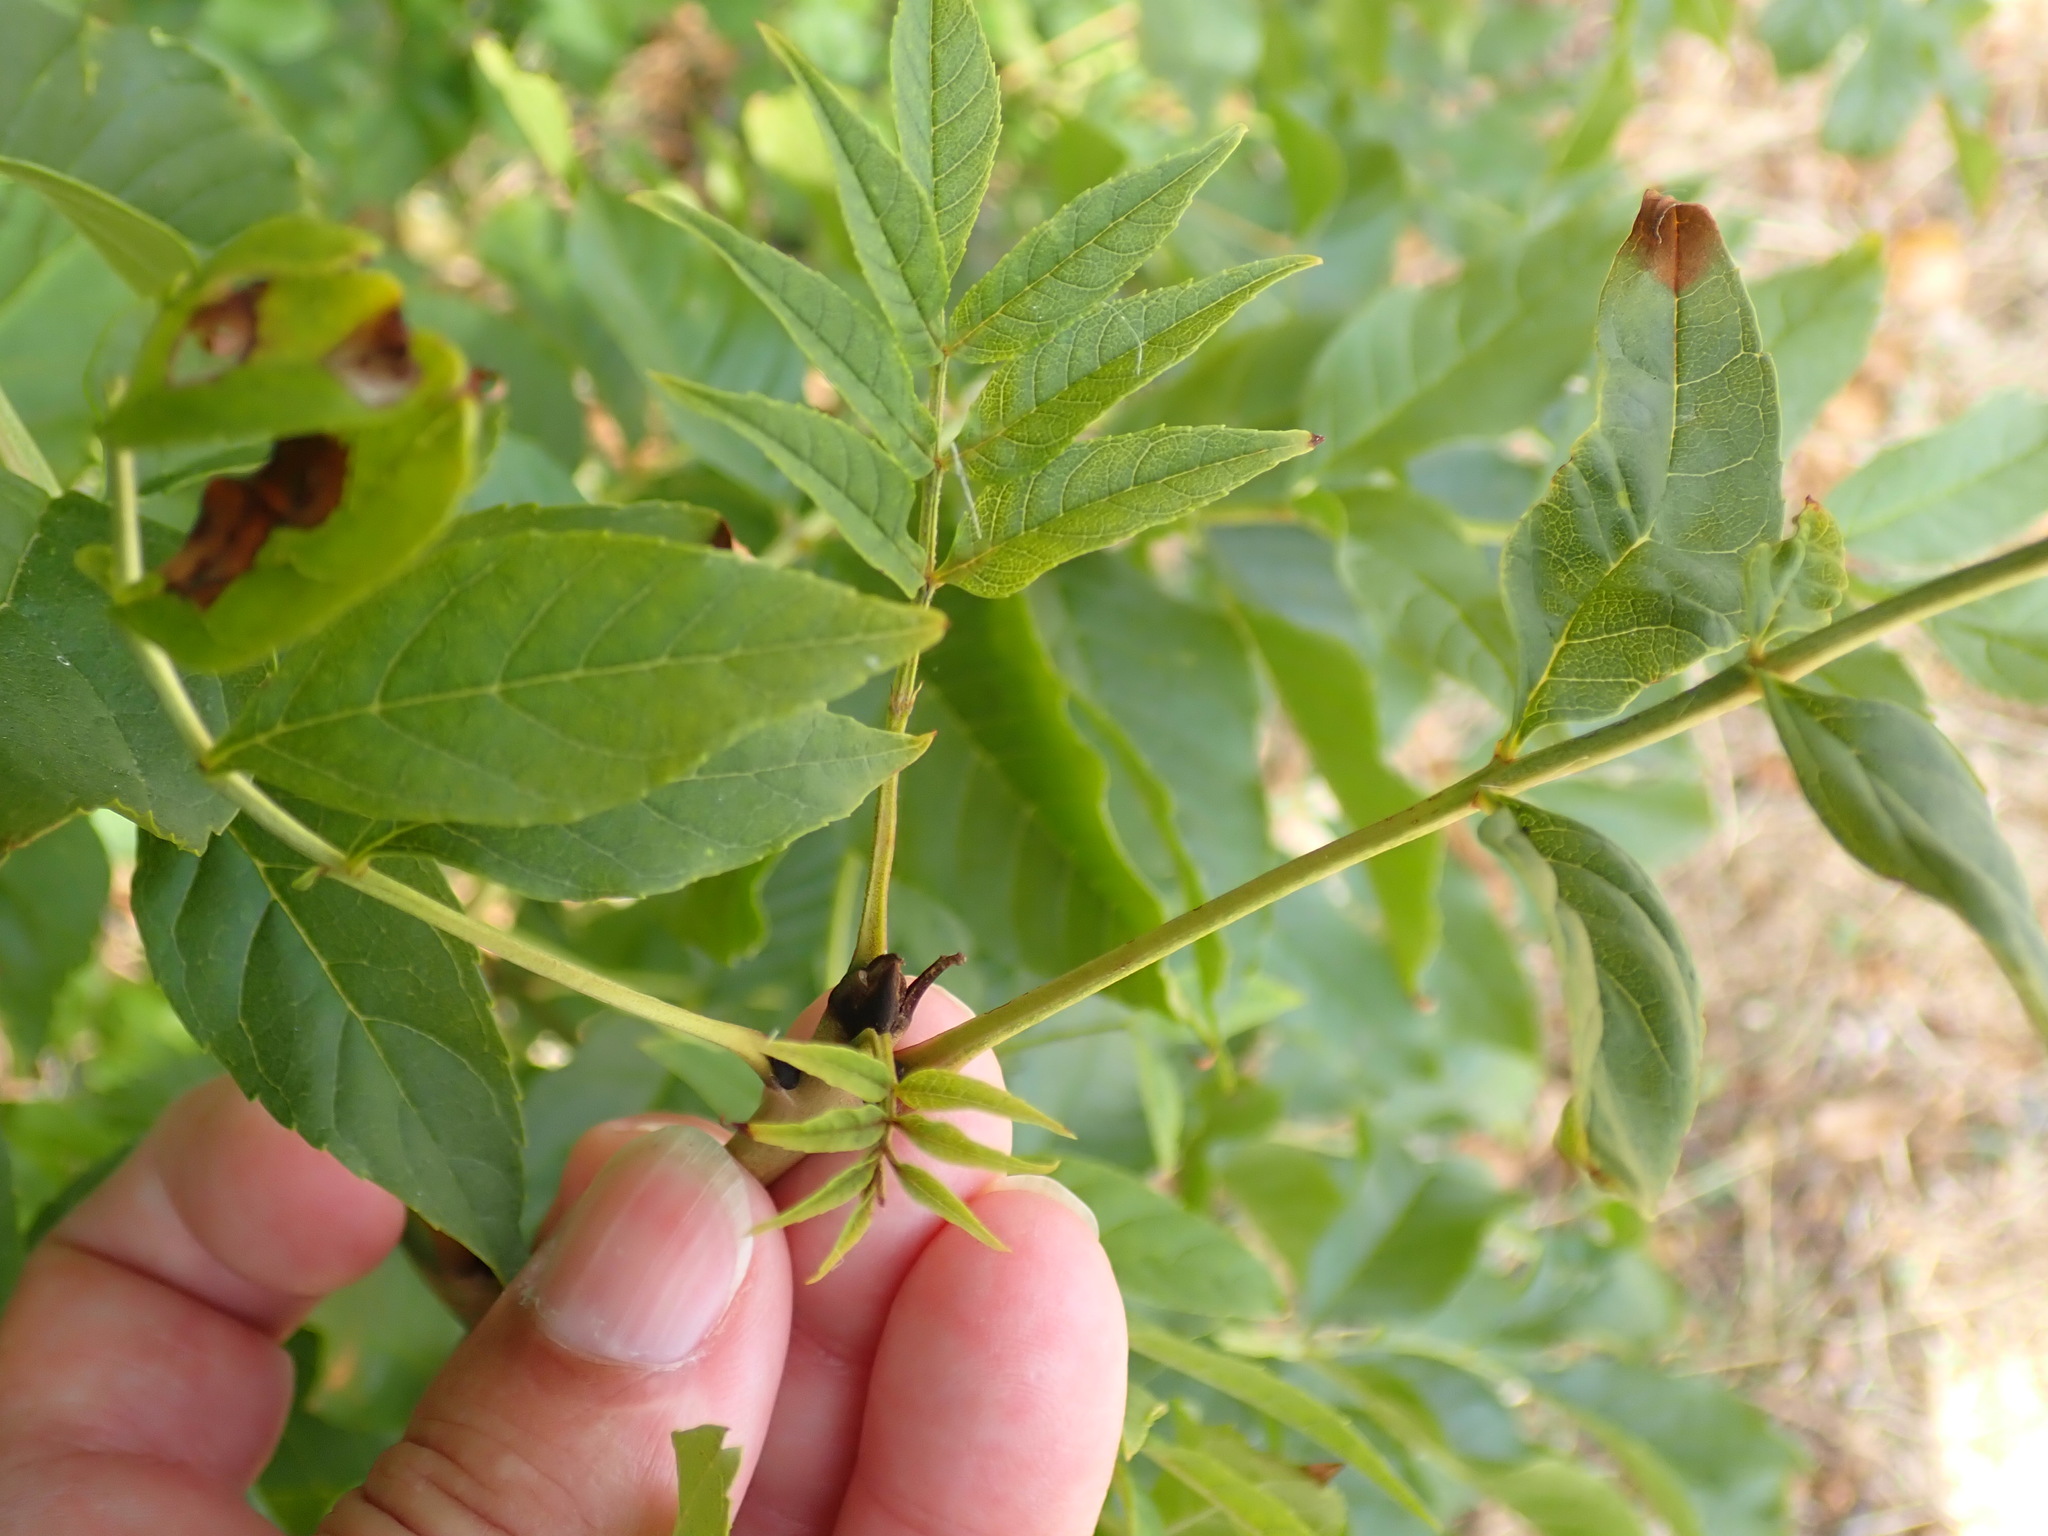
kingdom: Plantae
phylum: Tracheophyta
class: Magnoliopsida
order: Lamiales
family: Oleaceae
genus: Fraxinus
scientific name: Fraxinus excelsior
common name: European ash
